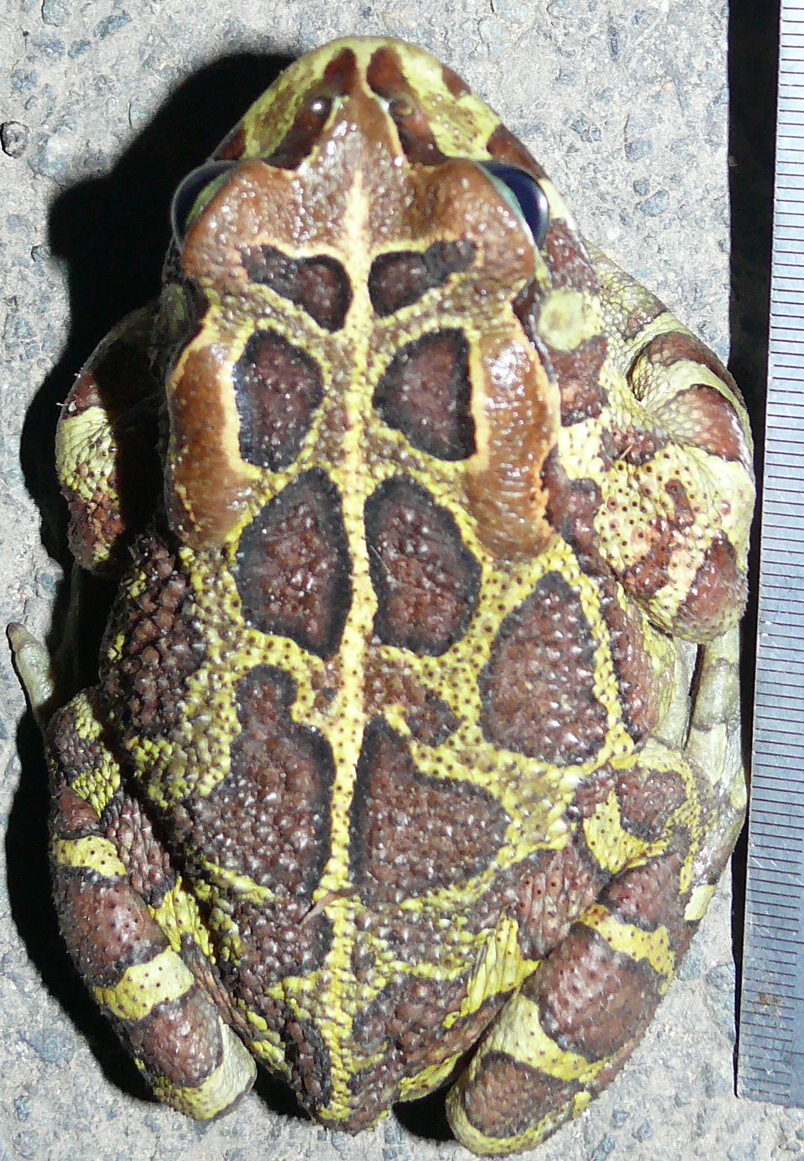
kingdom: Animalia
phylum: Chordata
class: Amphibia
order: Anura
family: Bufonidae
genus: Sclerophrys
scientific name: Sclerophrys pantherina
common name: Panther toad
